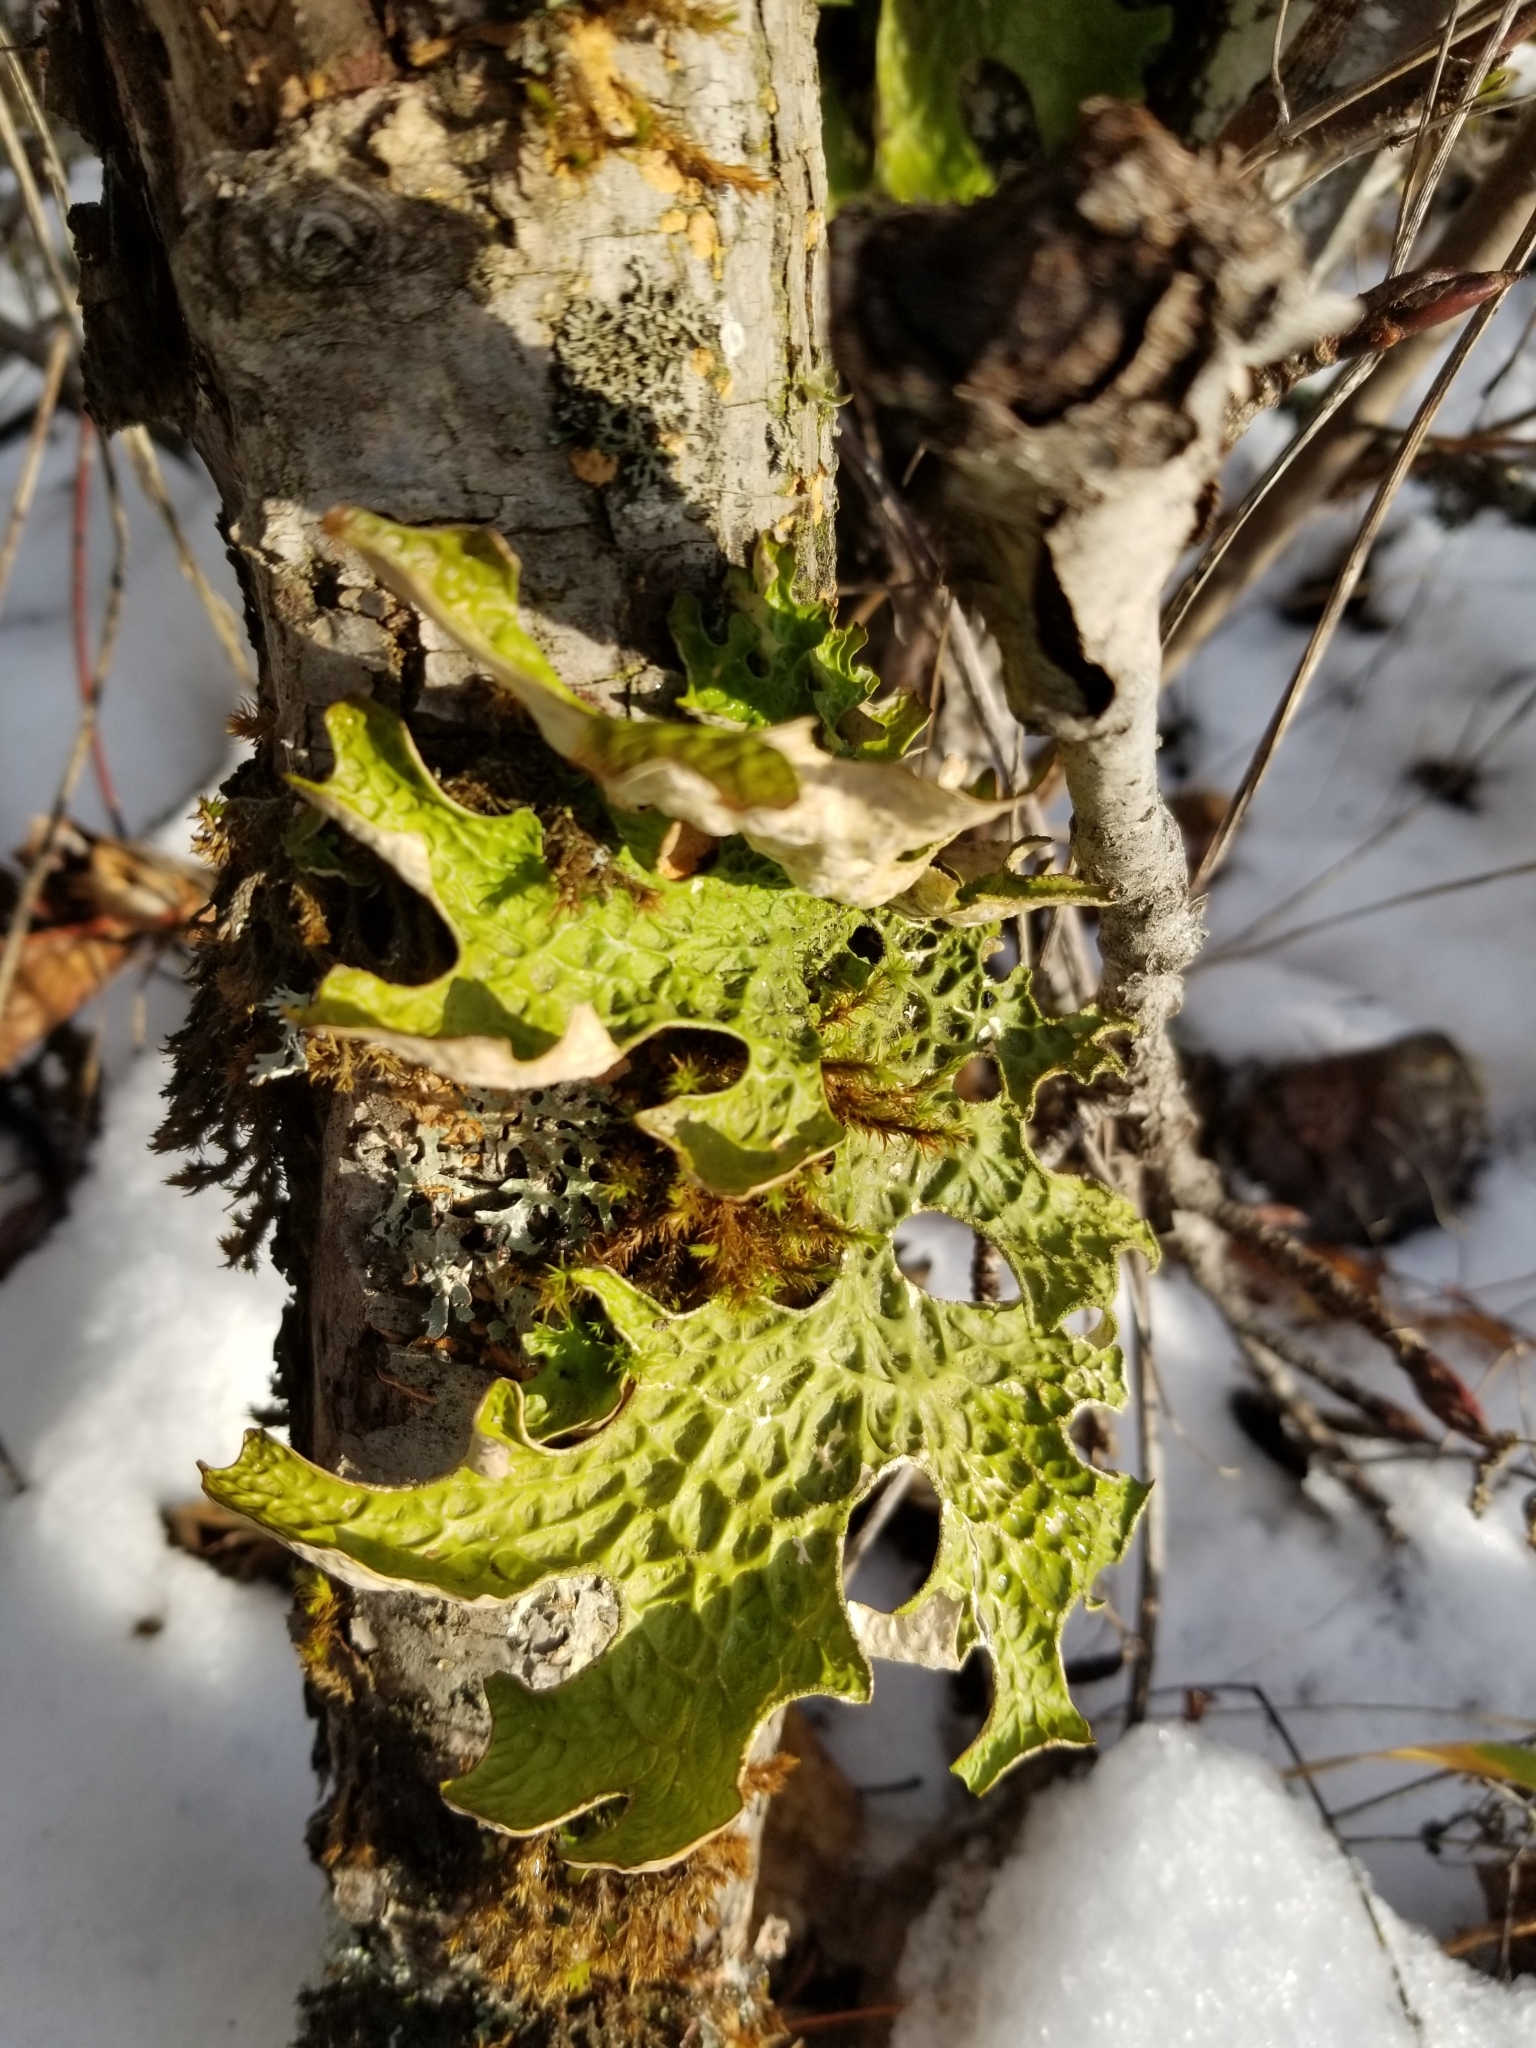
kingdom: Fungi
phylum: Ascomycota
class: Lecanoromycetes
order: Peltigerales
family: Lobariaceae
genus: Lobaria
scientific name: Lobaria pulmonaria
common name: Lungwort
